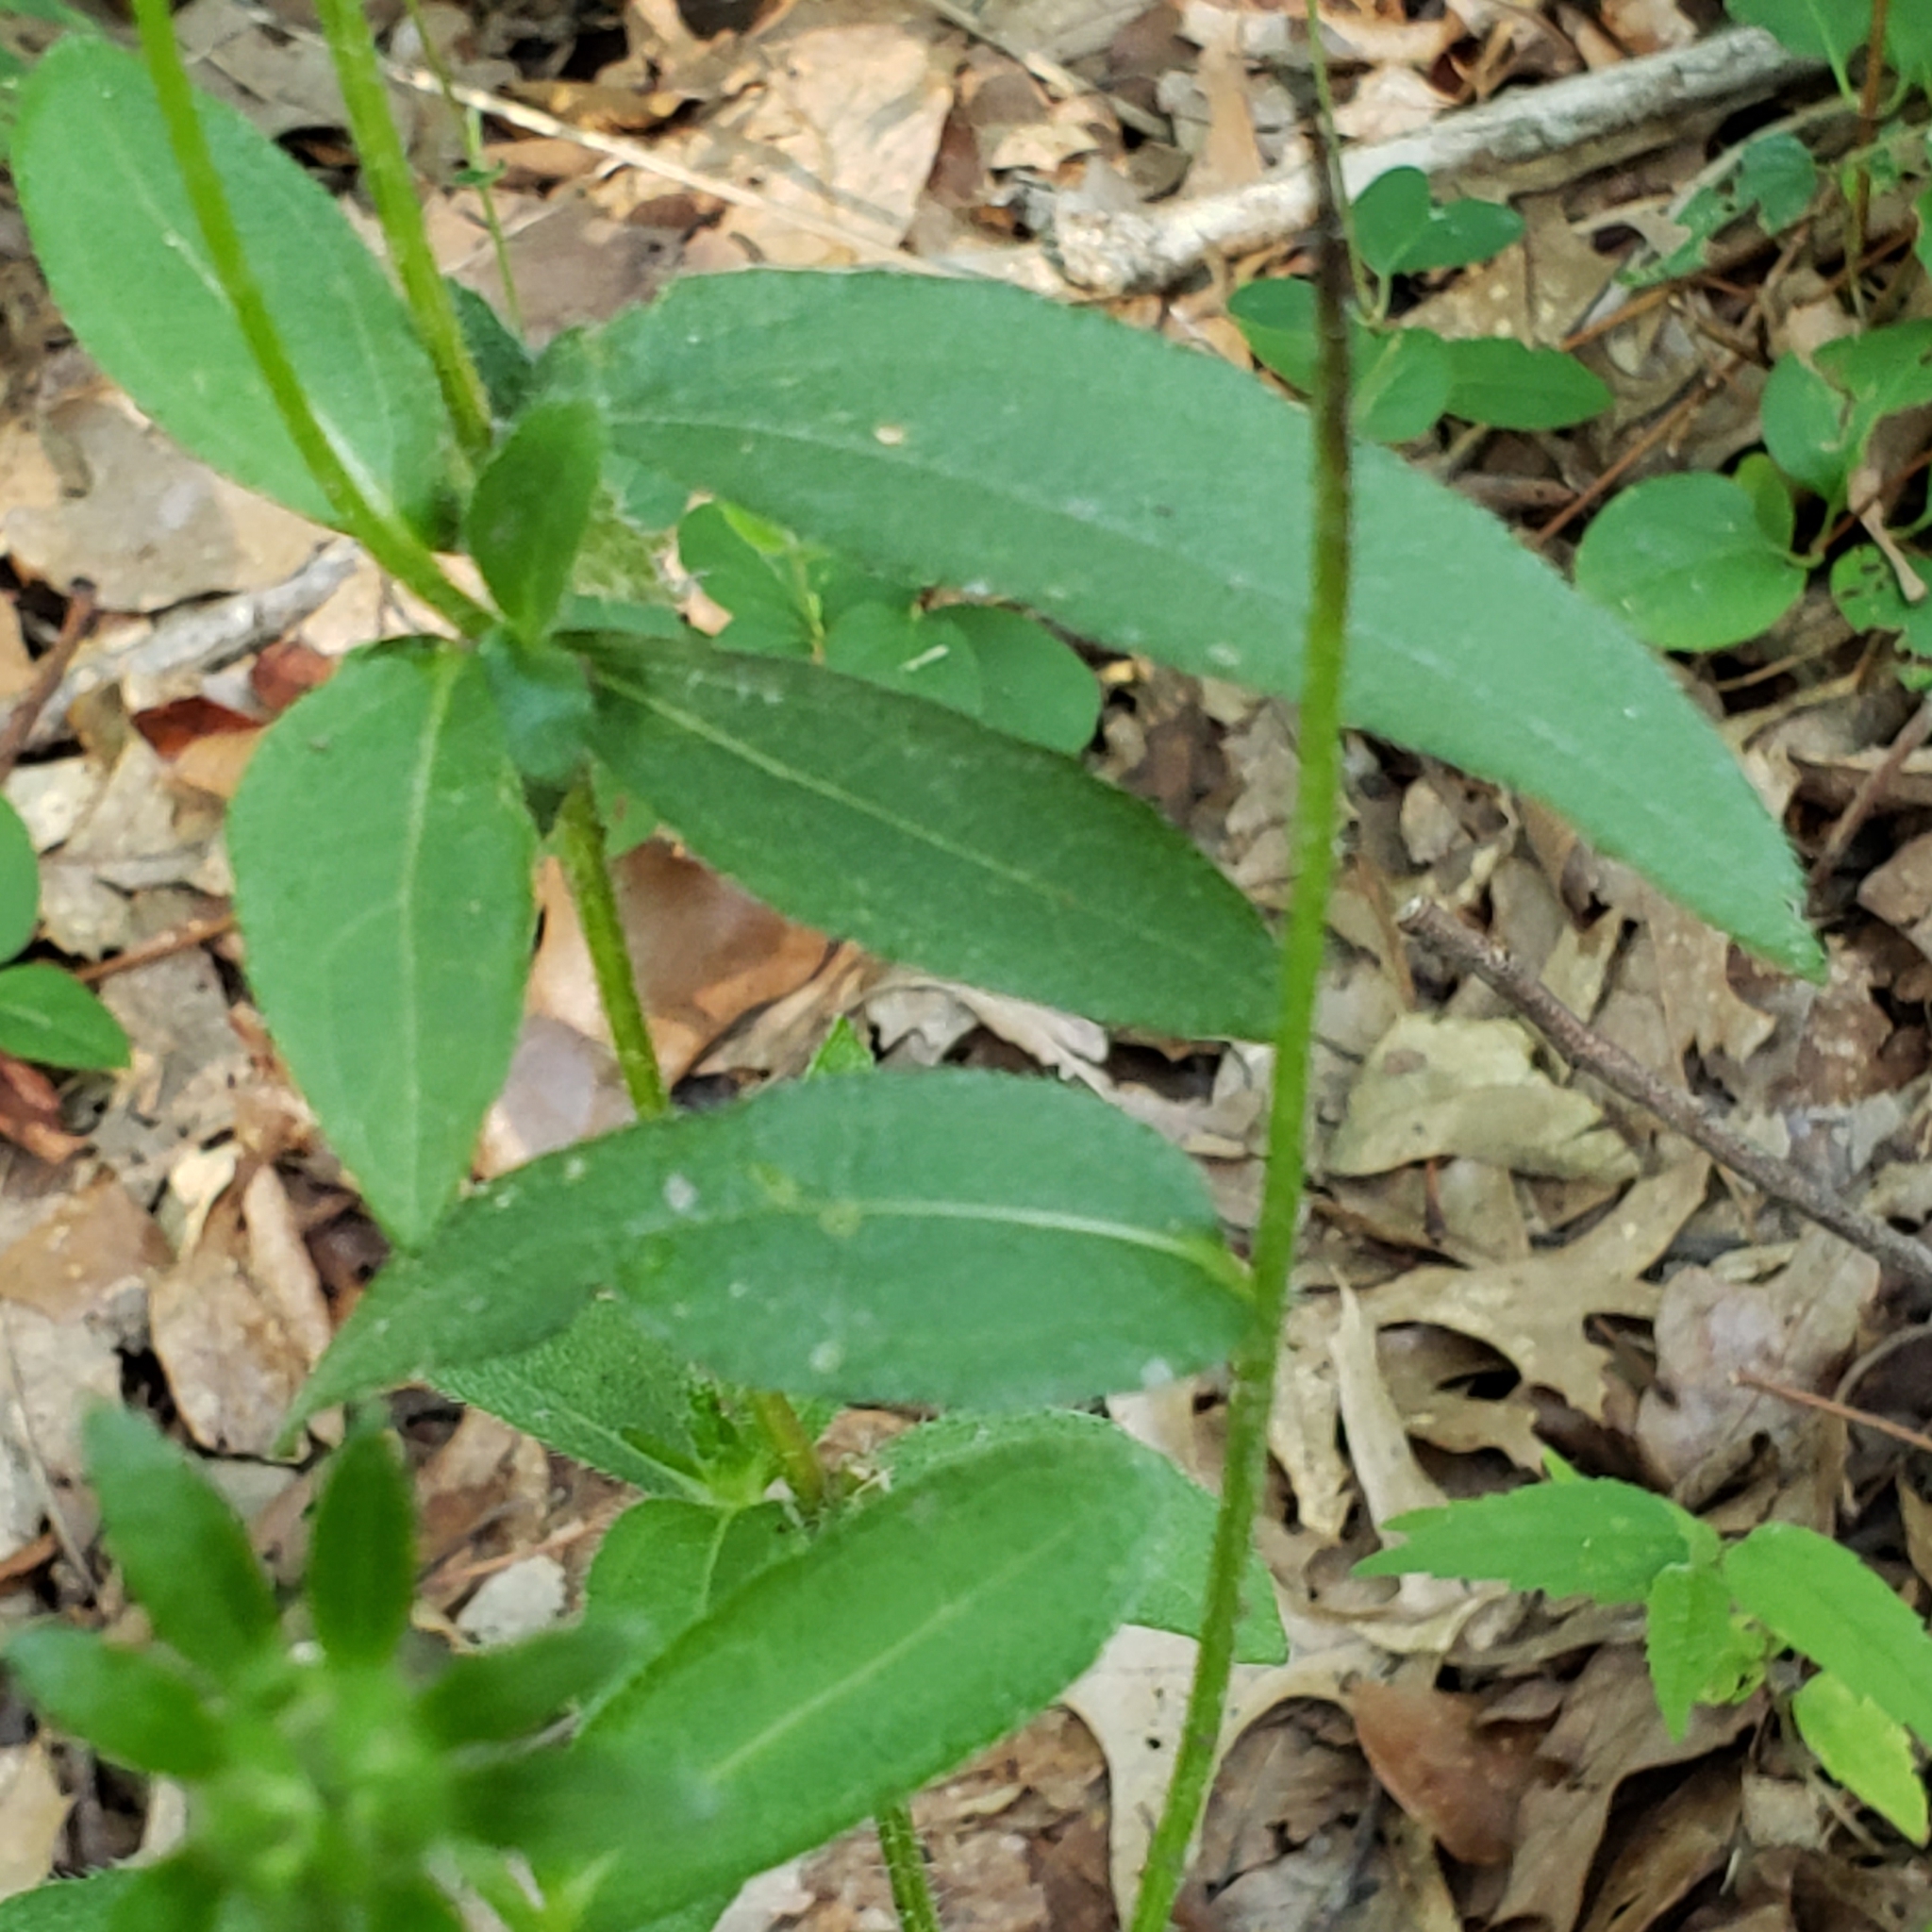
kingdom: Plantae
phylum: Tracheophyta
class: Magnoliopsida
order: Asterales
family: Asteraceae
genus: Rudbeckia
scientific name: Rudbeckia hirta
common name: Black-eyed-susan
